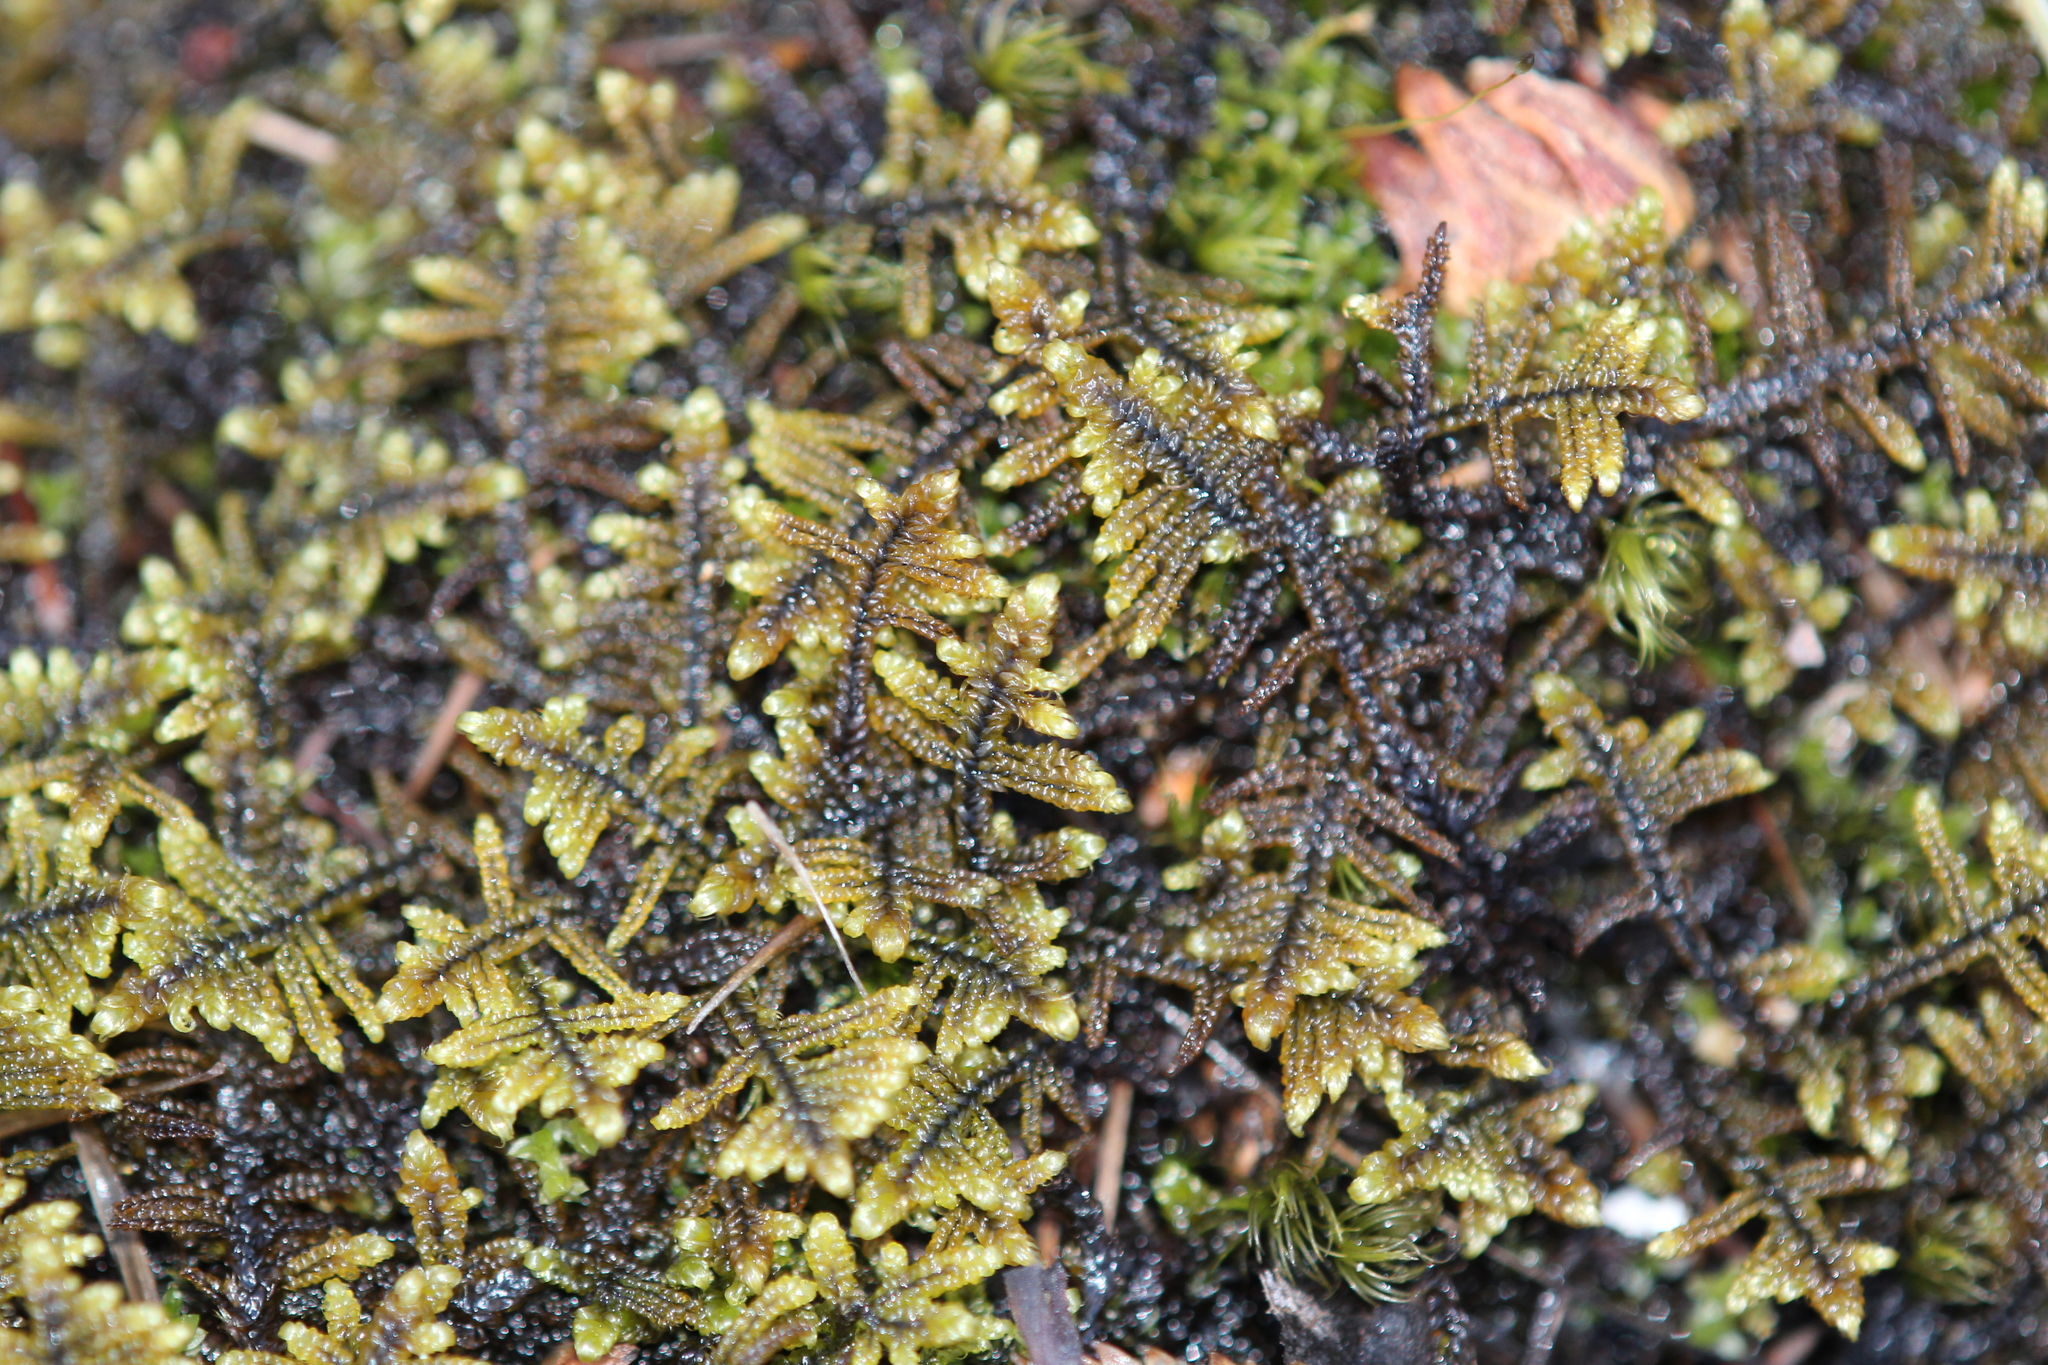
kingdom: Plantae
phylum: Bryophyta
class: Bryopsida
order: Hypnales
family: Callicladiaceae
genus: Callicladium
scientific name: Callicladium imponens
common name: Brocade moss
